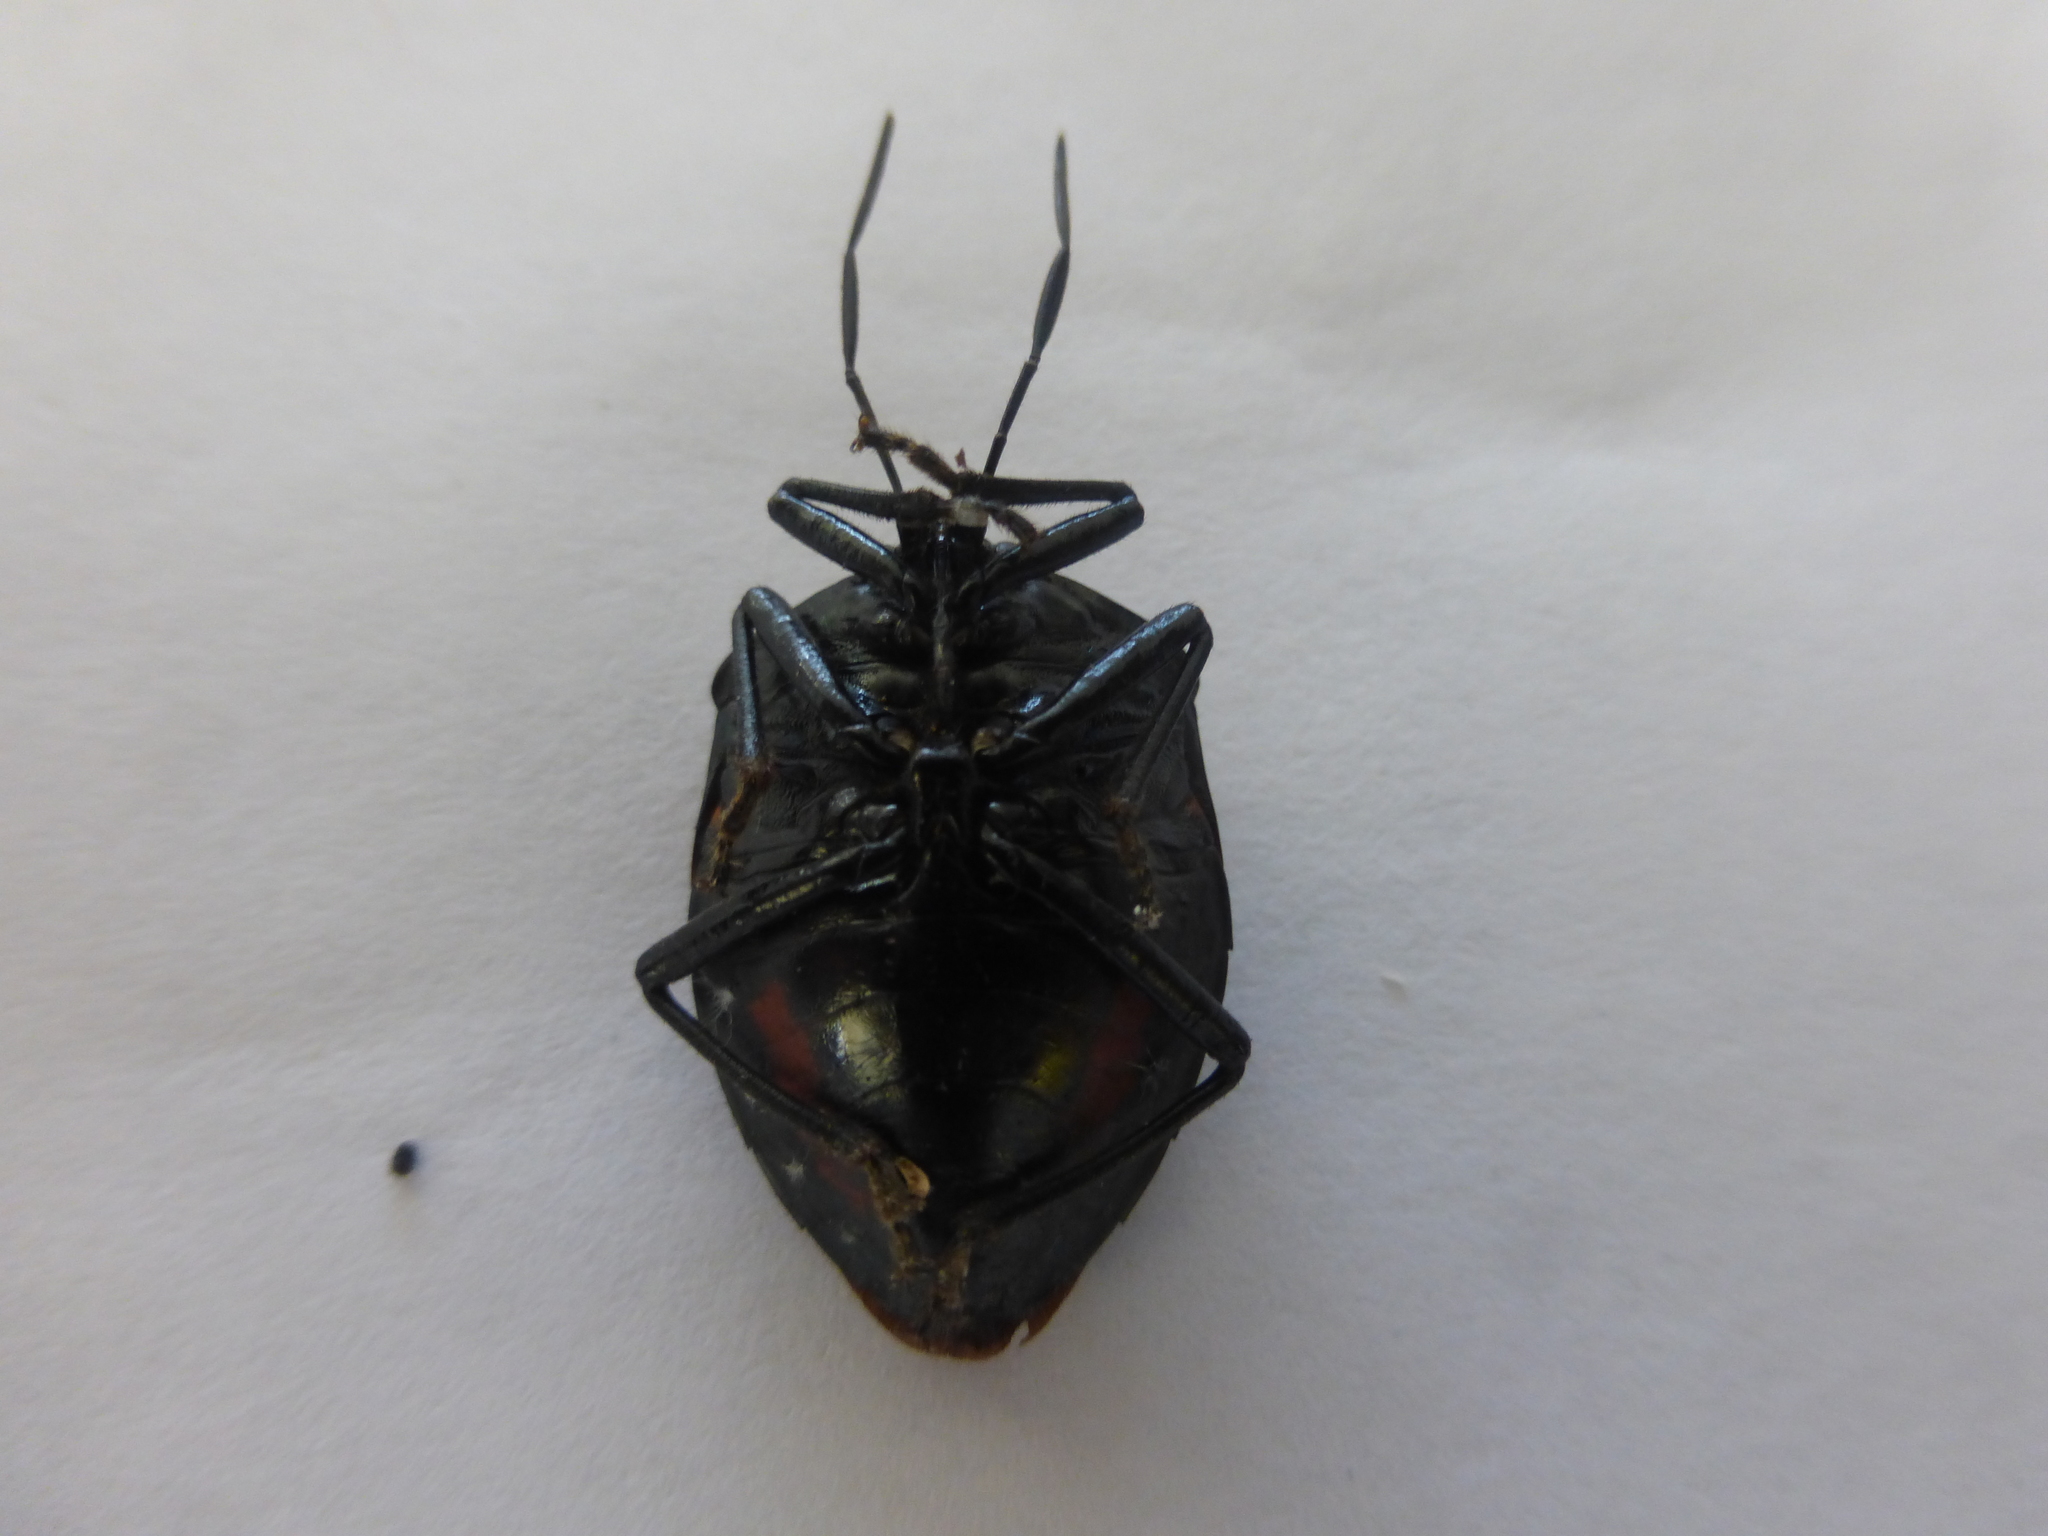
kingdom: Animalia
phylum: Arthropoda
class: Insecta
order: Hemiptera
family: Pentatomidae
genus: Brachystethus
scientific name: Brachystethus rubromaculatus
